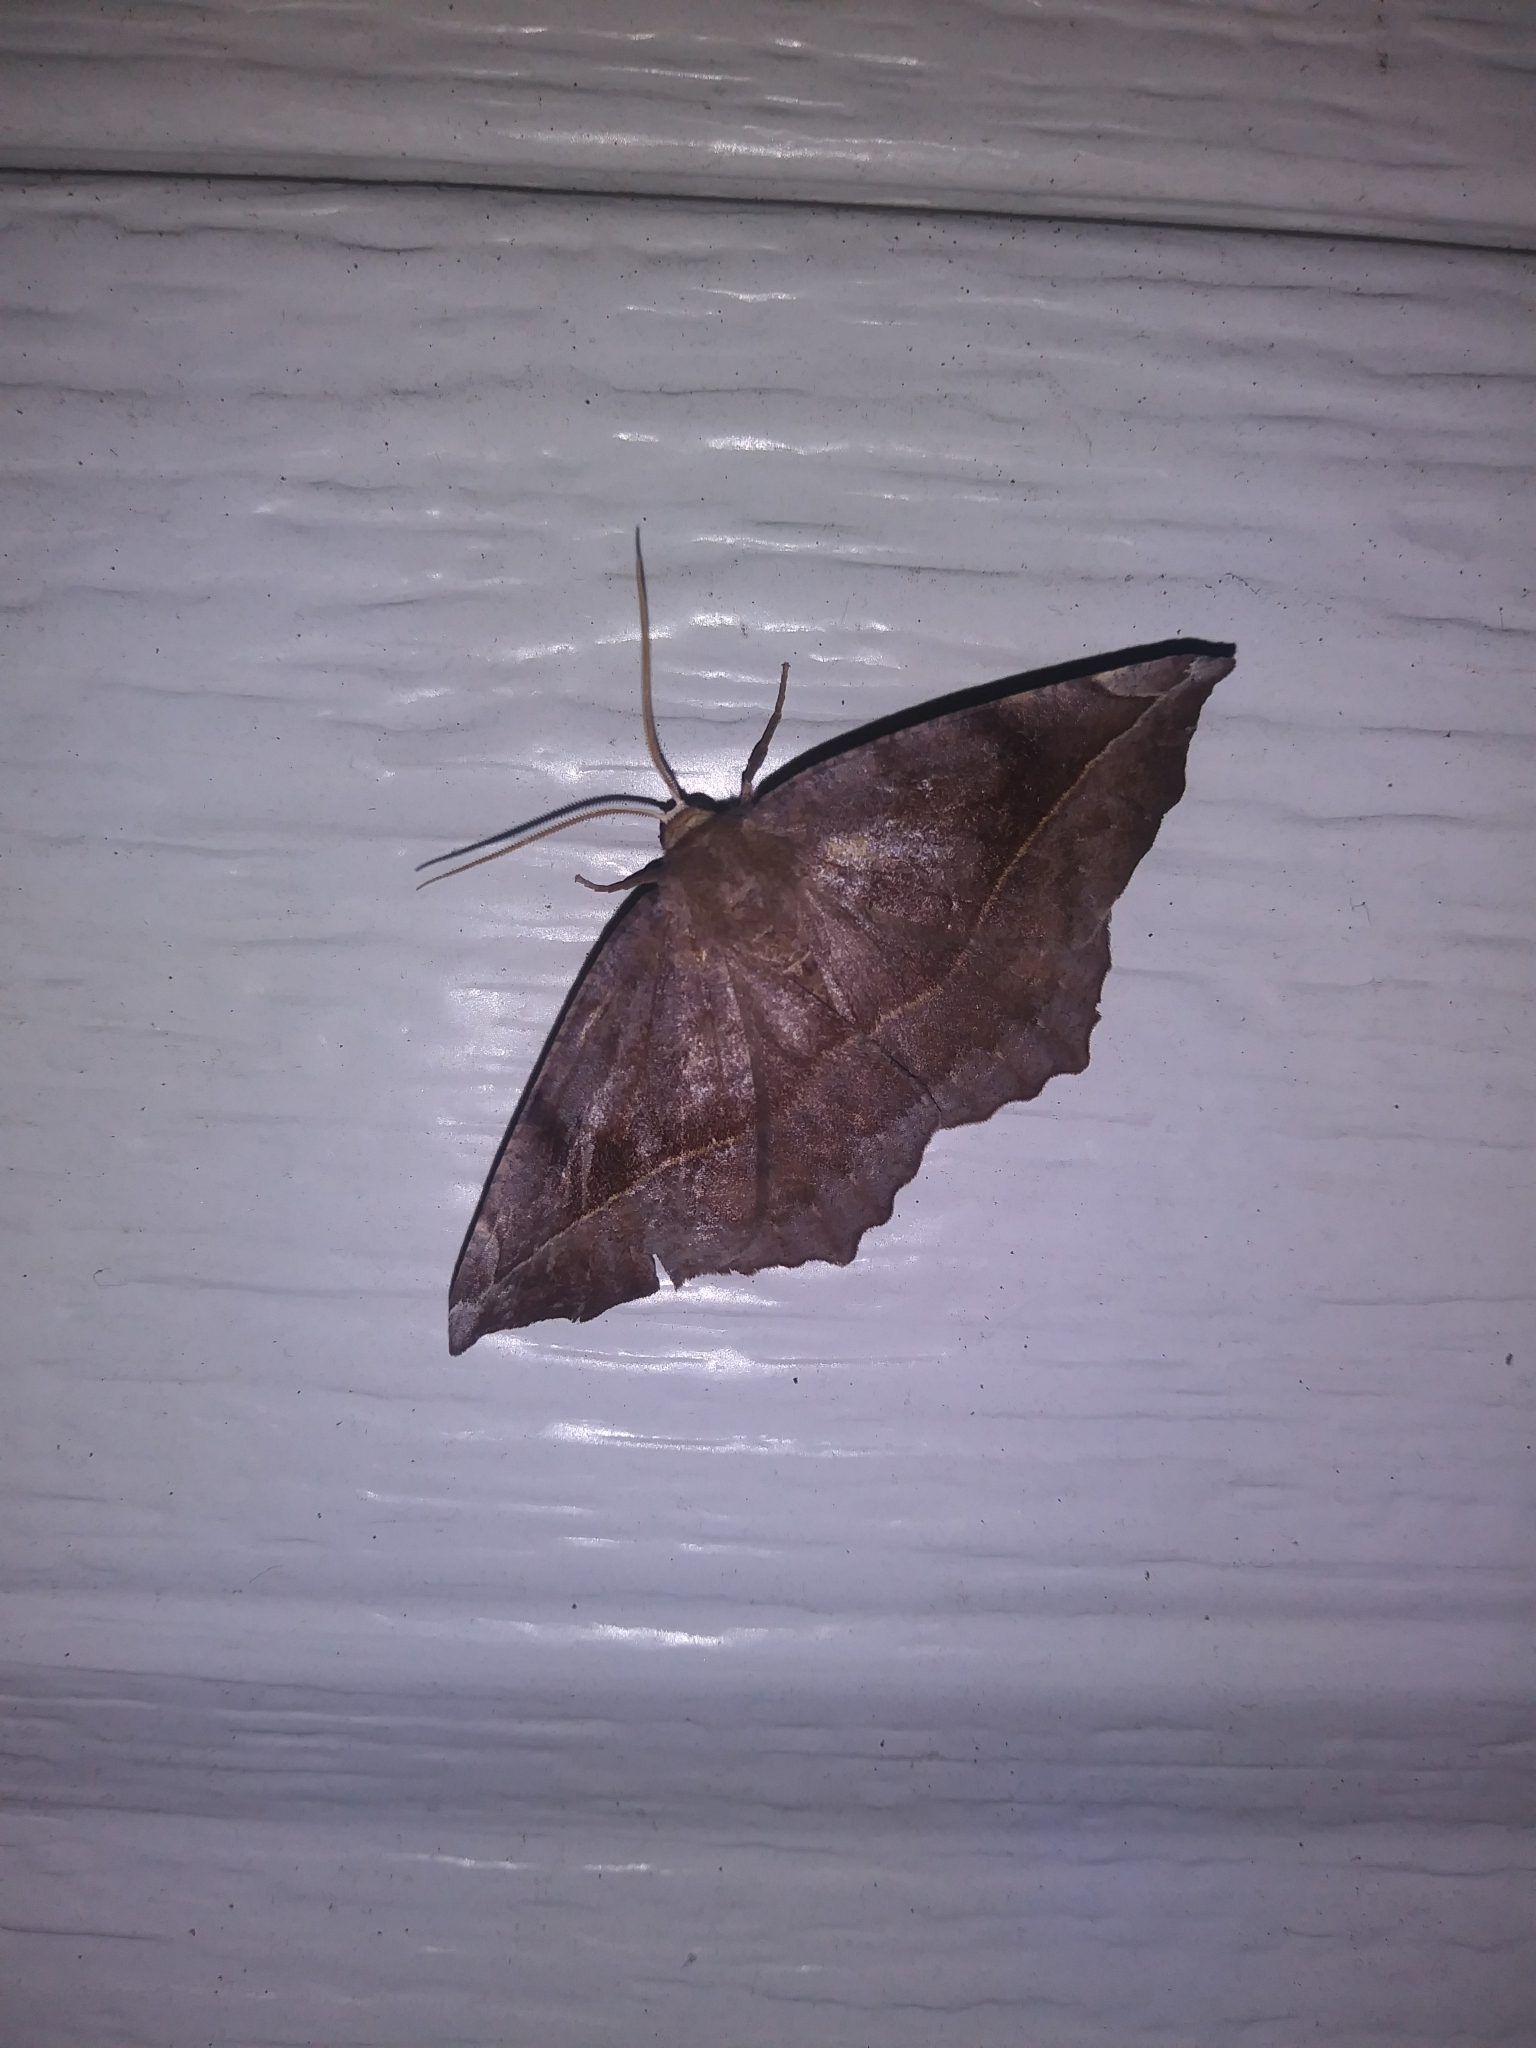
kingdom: Animalia
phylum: Arthropoda
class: Insecta
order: Lepidoptera
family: Geometridae
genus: Eutrapela
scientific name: Eutrapela clemataria
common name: Curved-toothed geometer
